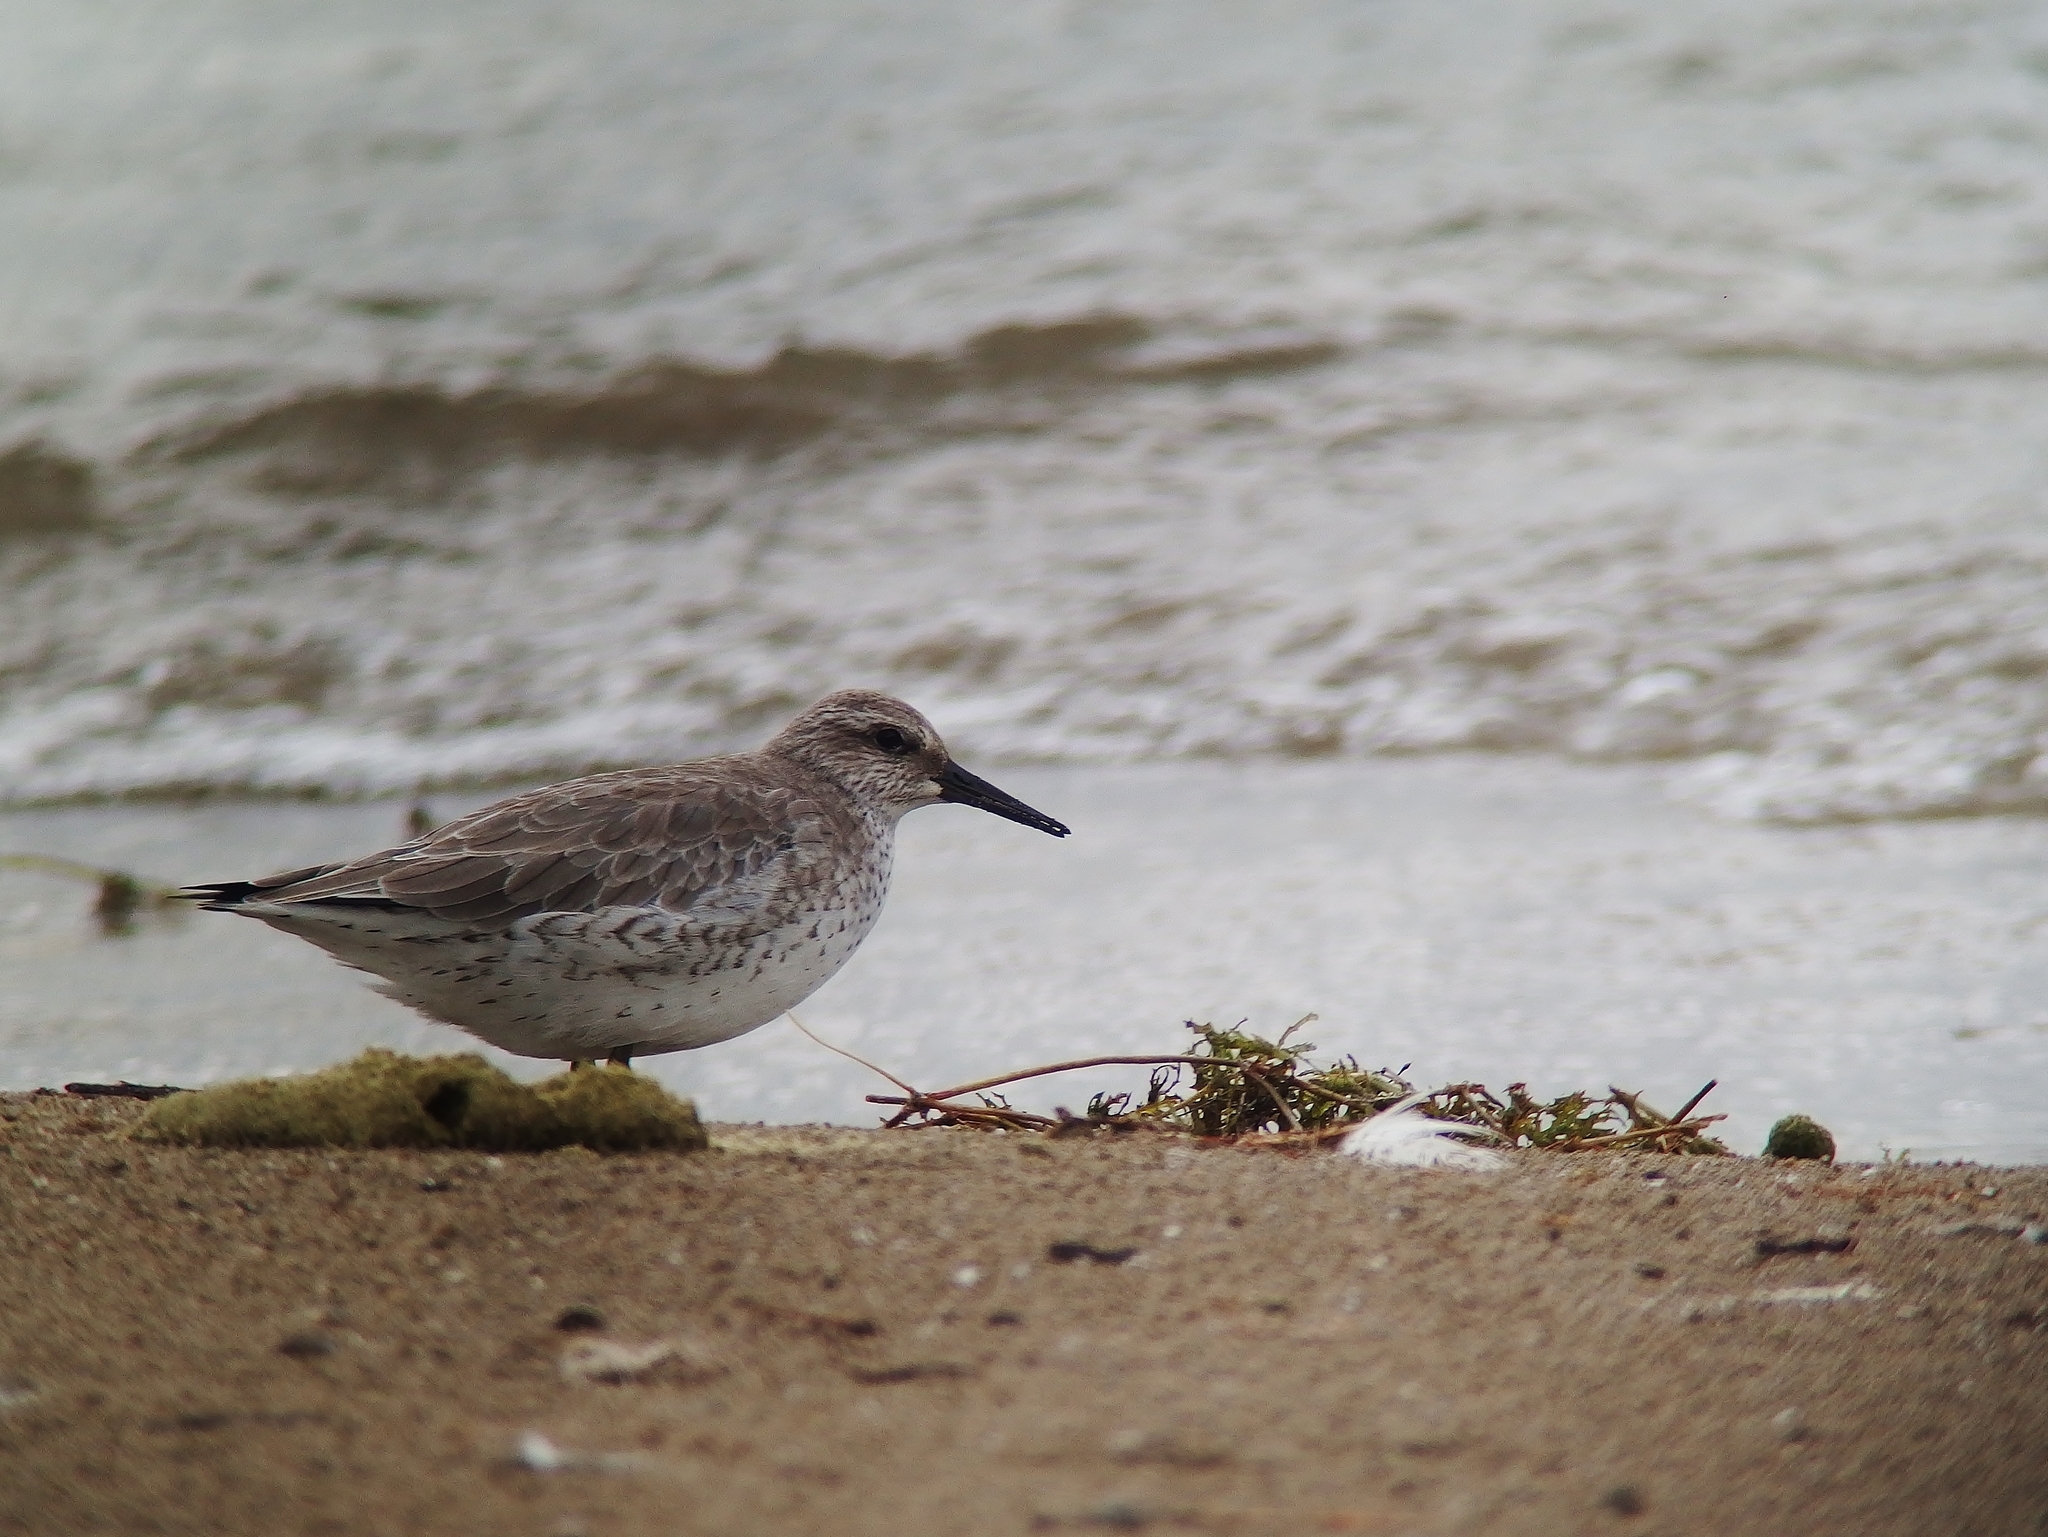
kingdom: Animalia
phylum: Chordata
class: Aves
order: Charadriiformes
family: Scolopacidae
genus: Calidris
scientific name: Calidris canutus
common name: Red knot
